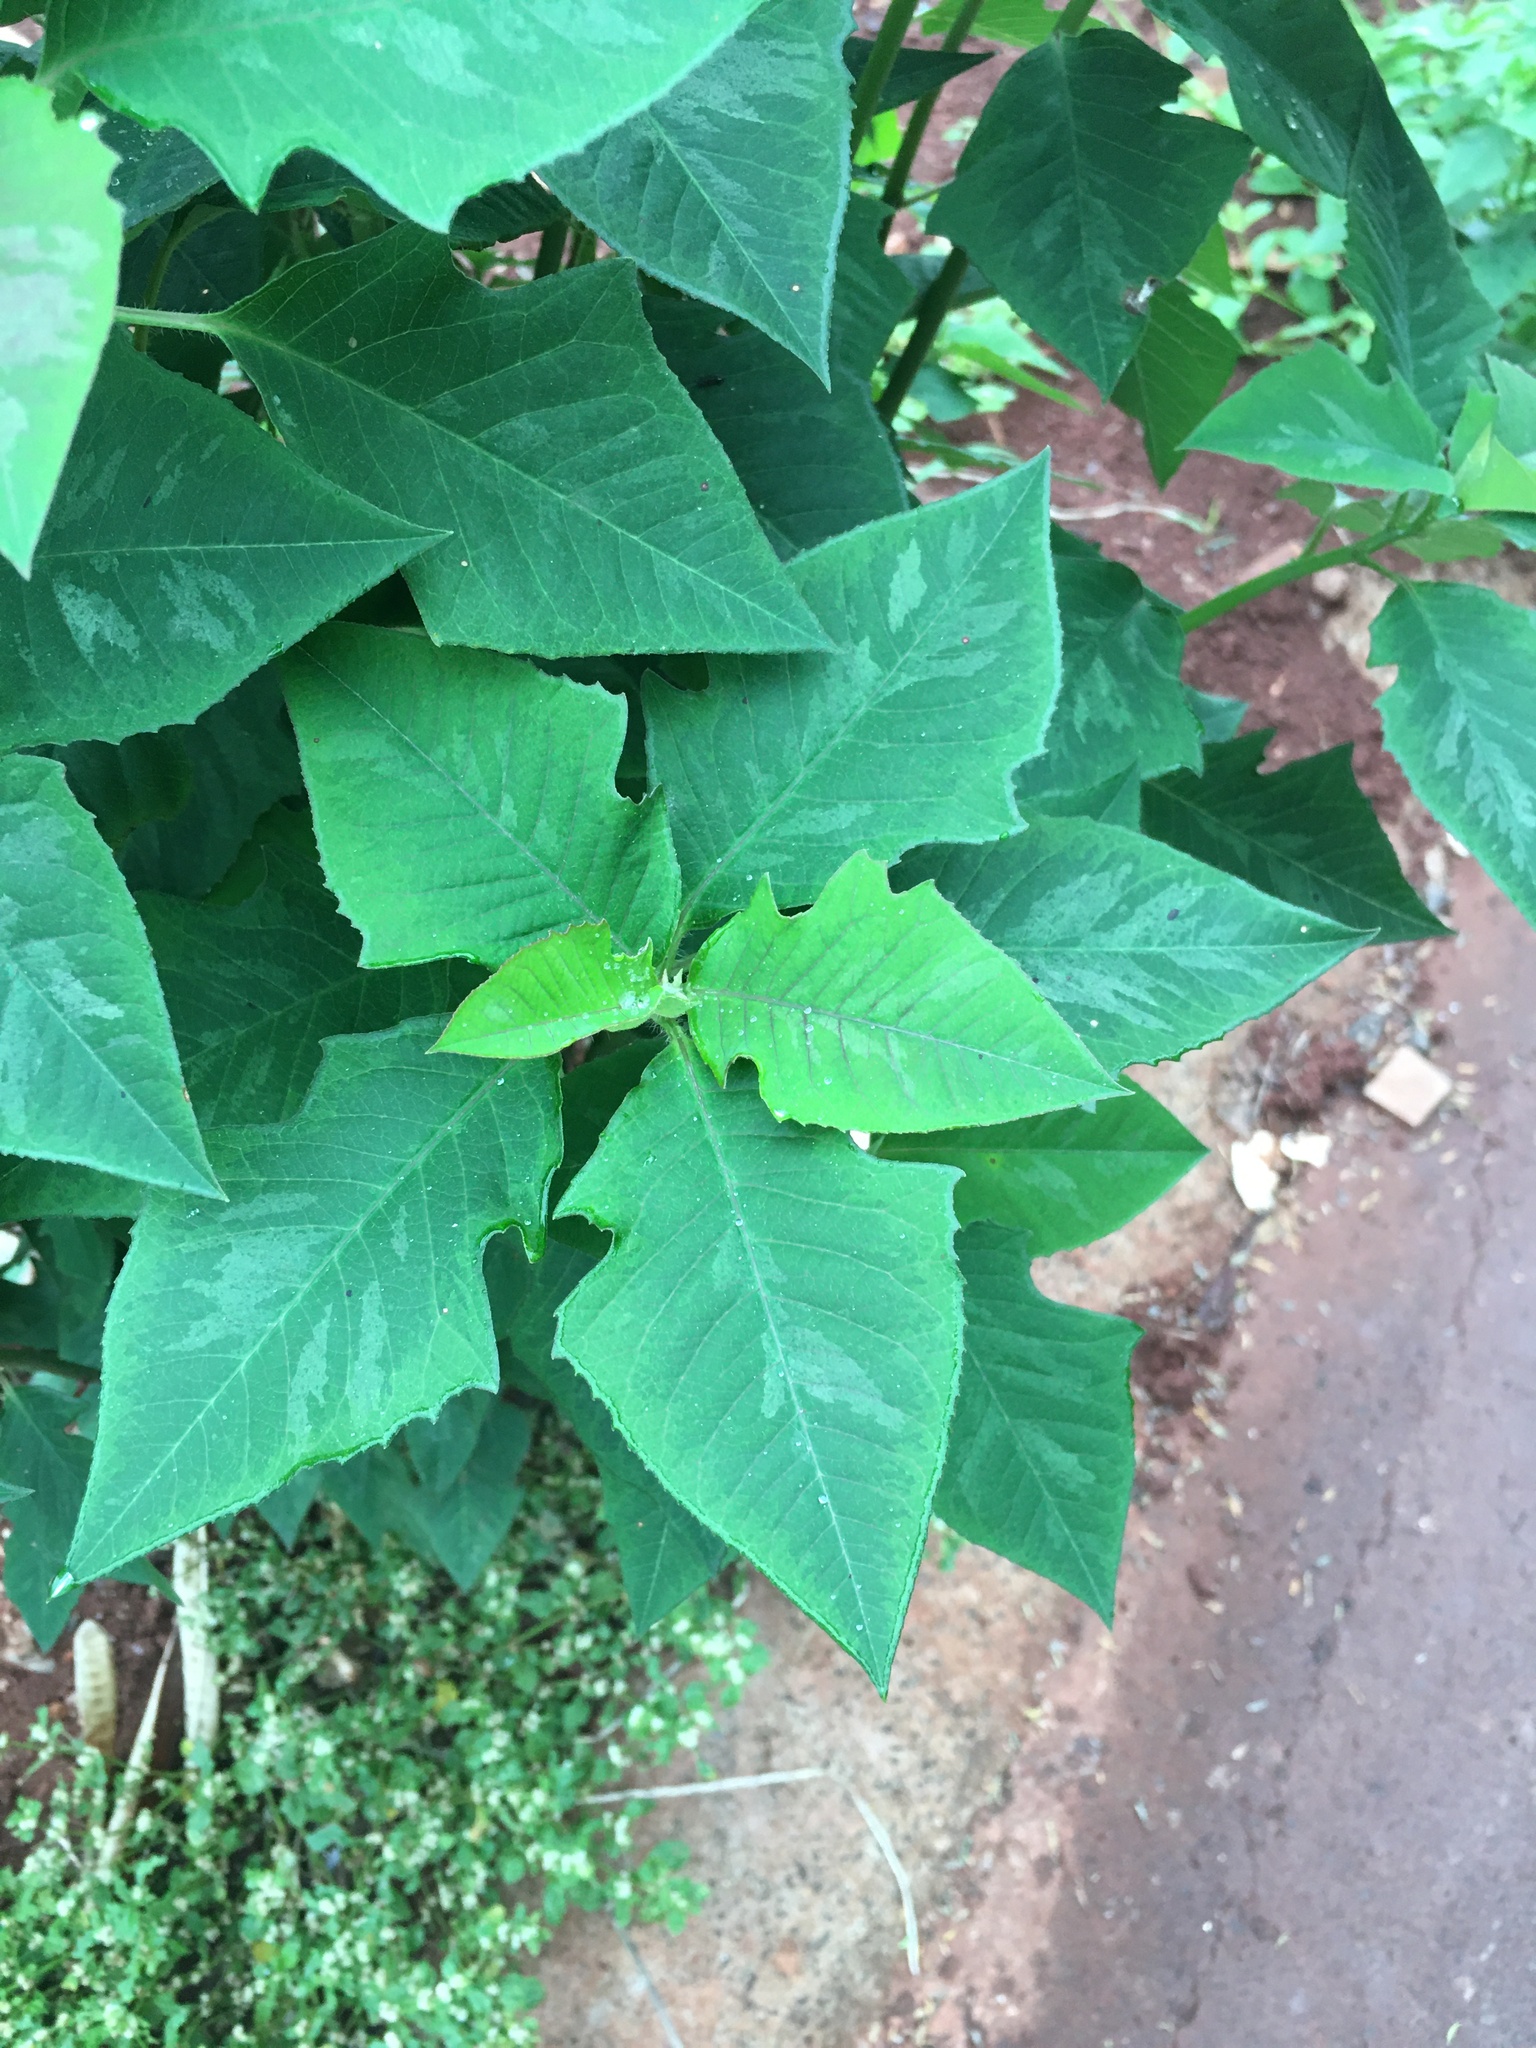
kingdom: Plantae
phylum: Tracheophyta
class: Magnoliopsida
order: Malpighiales
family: Euphorbiaceae
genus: Euphorbia
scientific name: Euphorbia heterophylla
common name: Mexican fireplant
